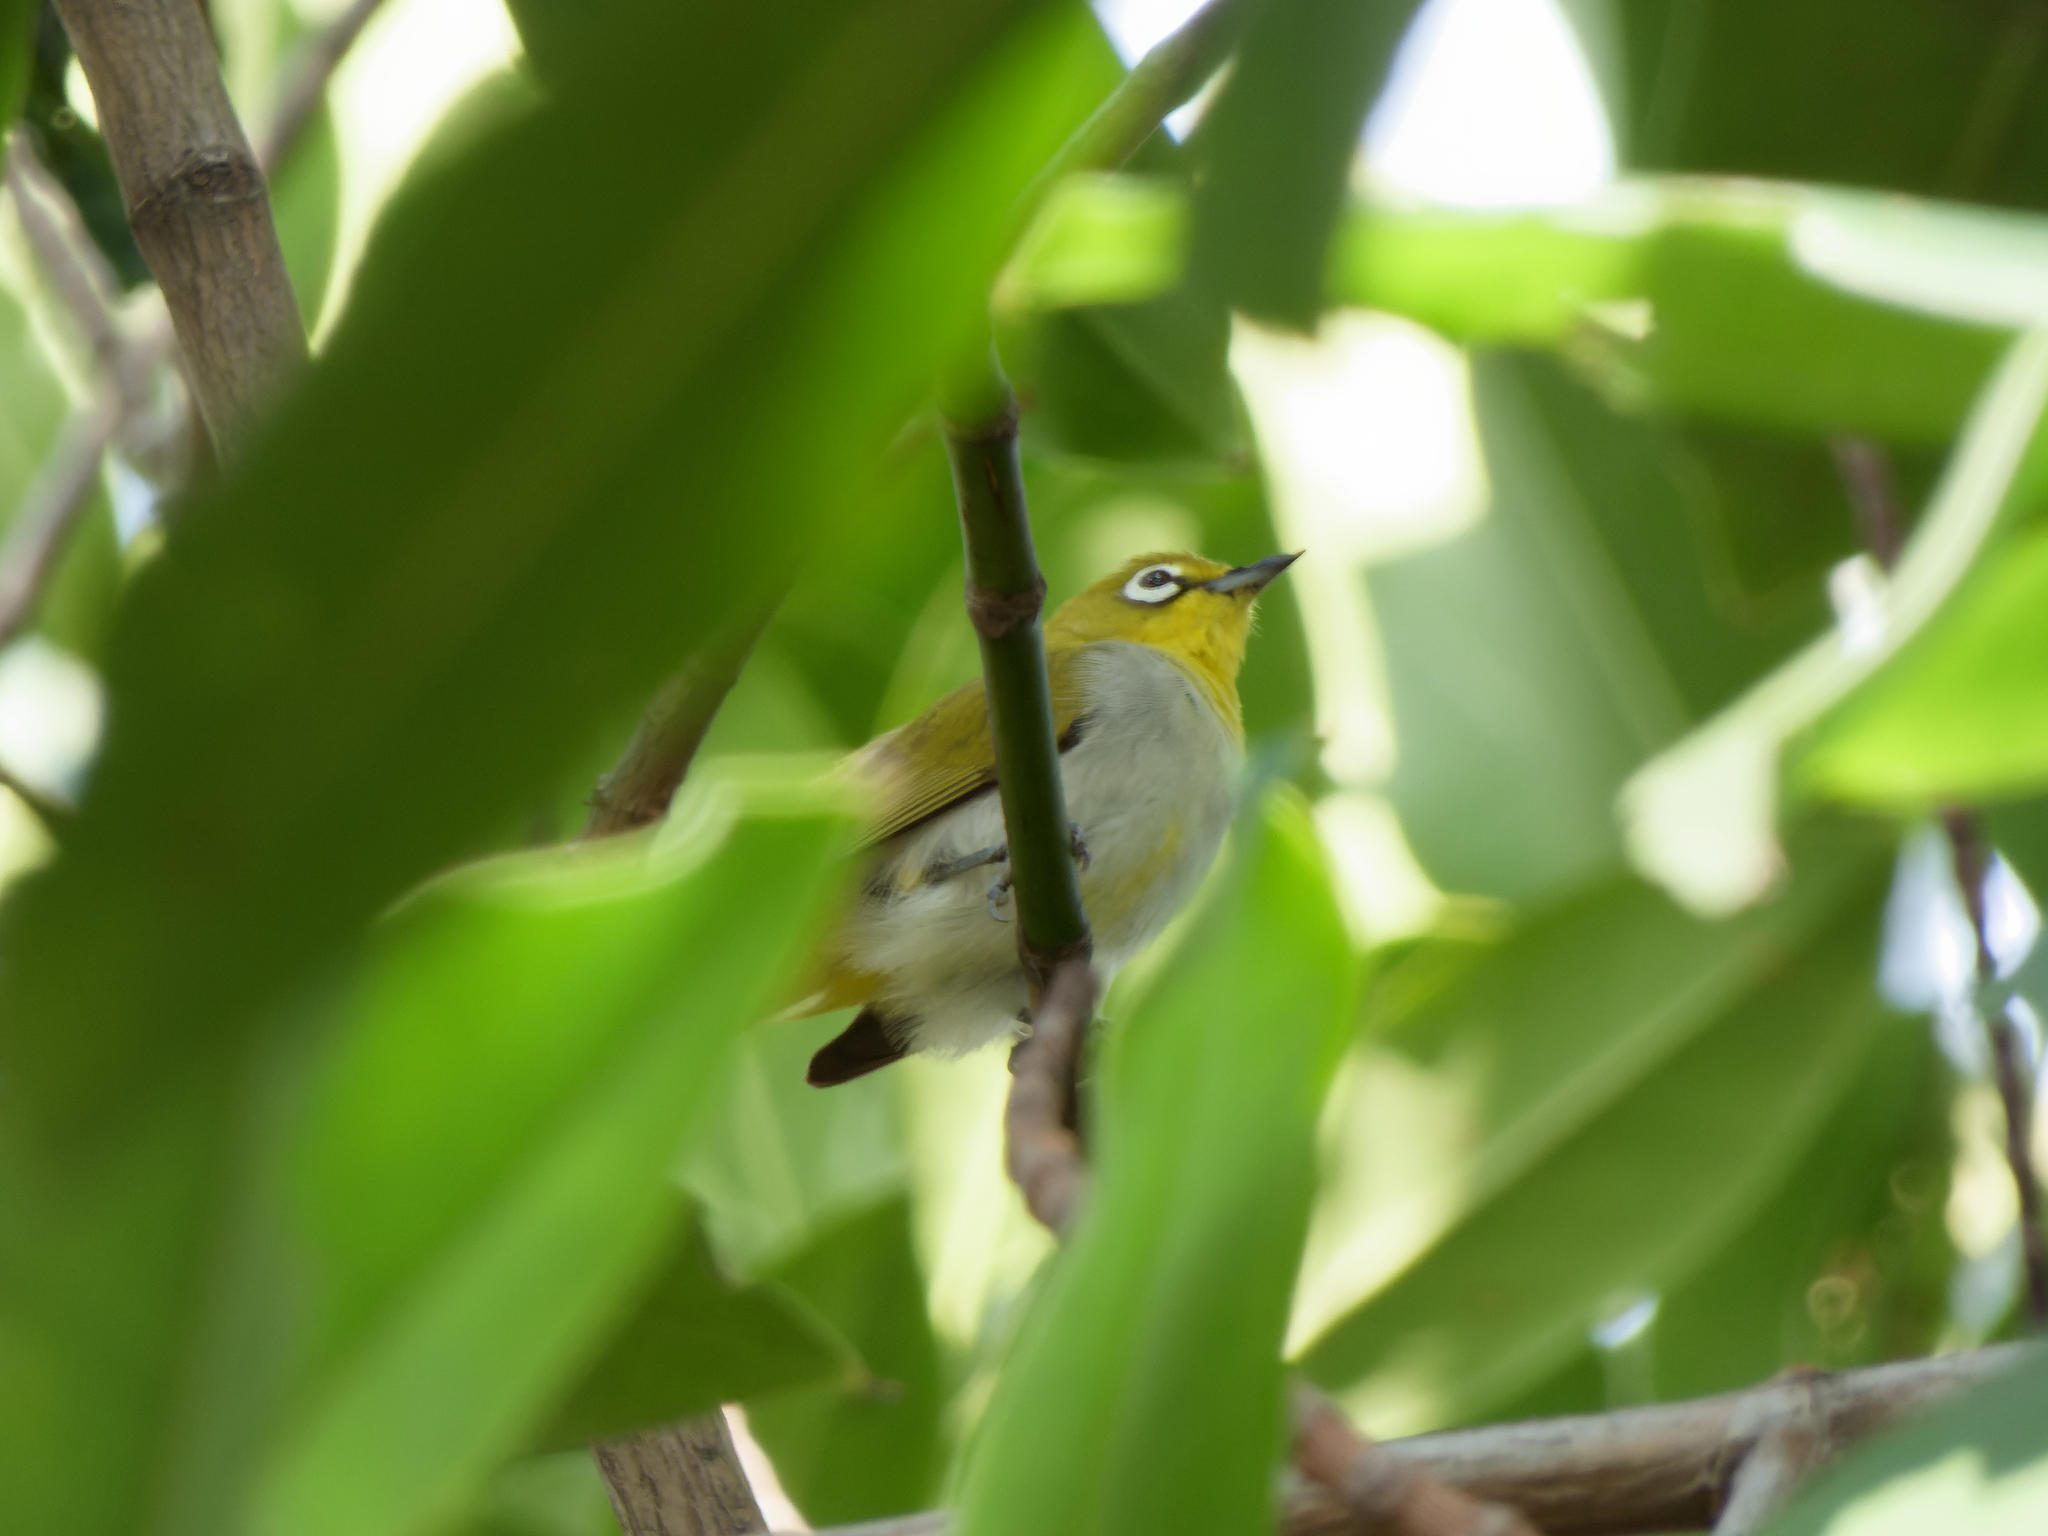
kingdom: Animalia
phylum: Chordata
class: Aves
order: Passeriformes
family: Zosteropidae
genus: Zosterops
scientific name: Zosterops simplex
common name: Swinhoe's white-eye
